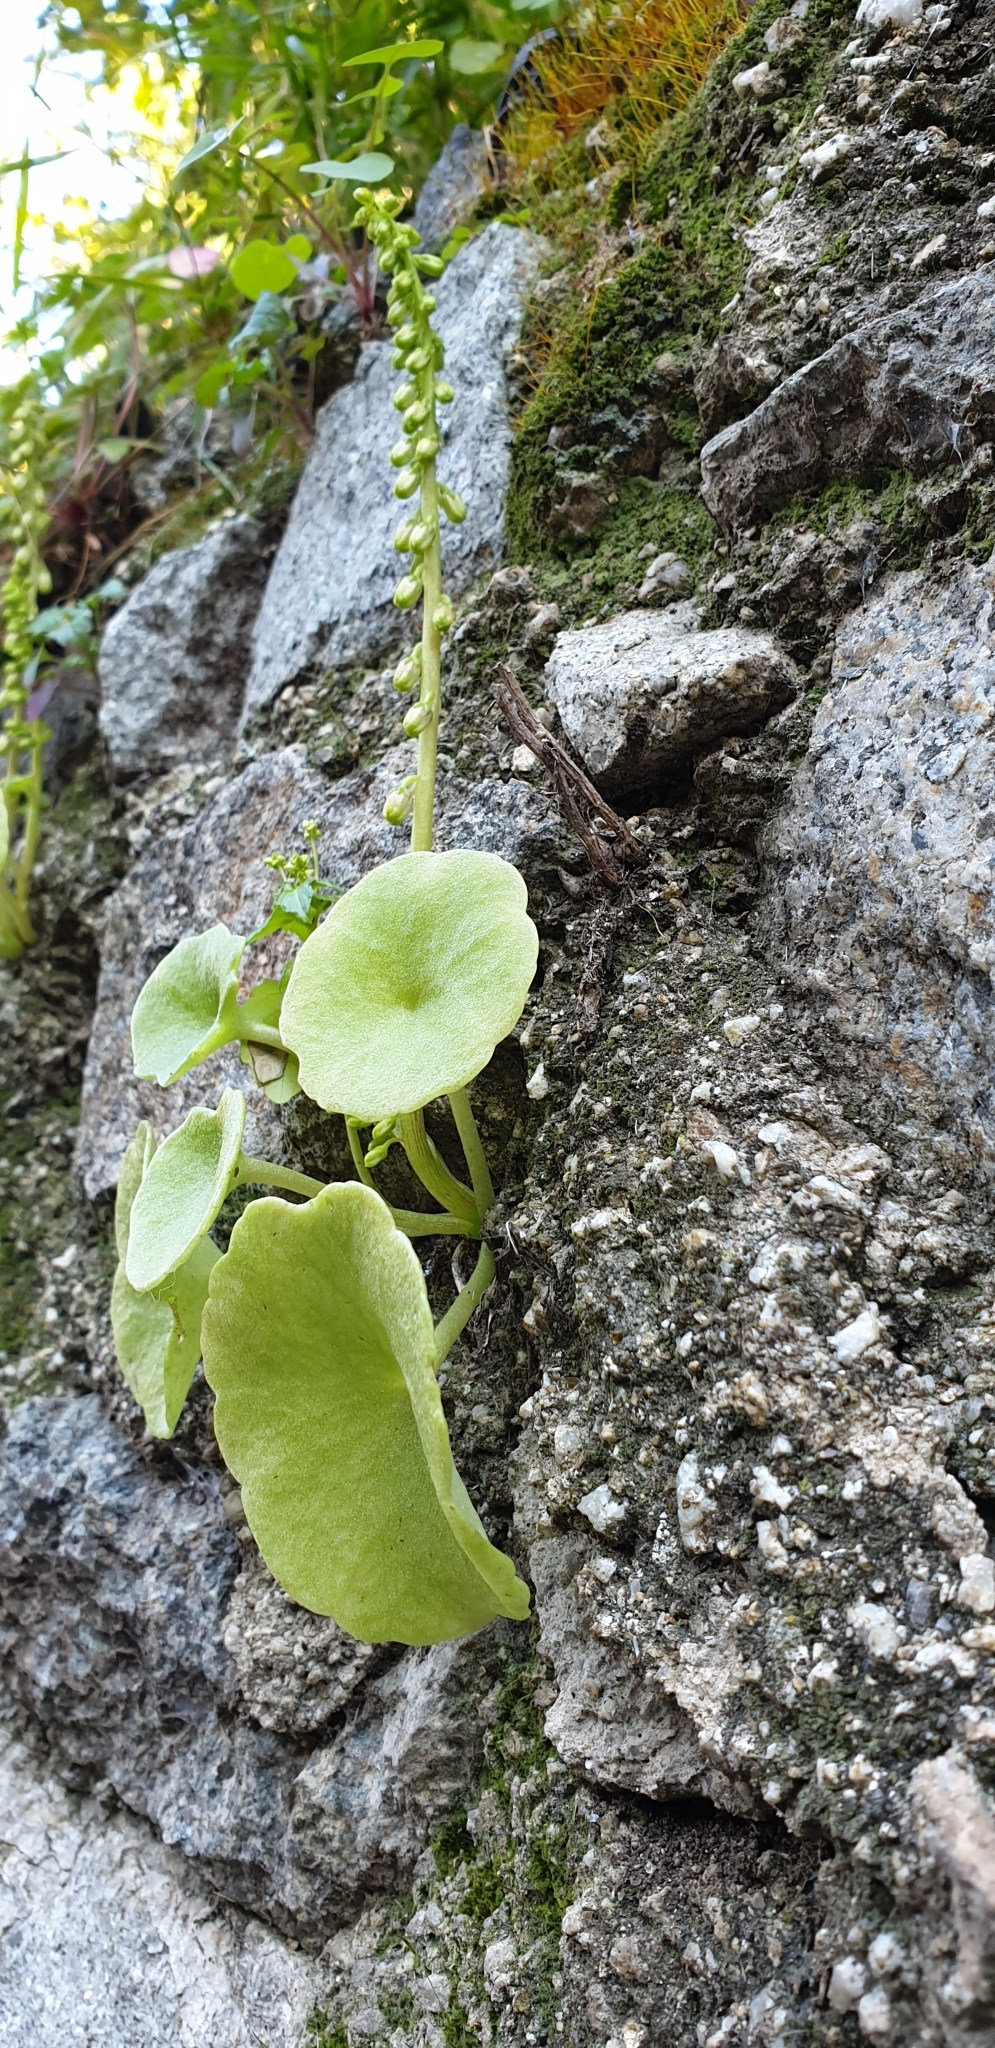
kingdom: Plantae
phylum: Tracheophyta
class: Magnoliopsida
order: Saxifragales
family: Crassulaceae
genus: Umbilicus
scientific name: Umbilicus rupestris
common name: Navelwort
